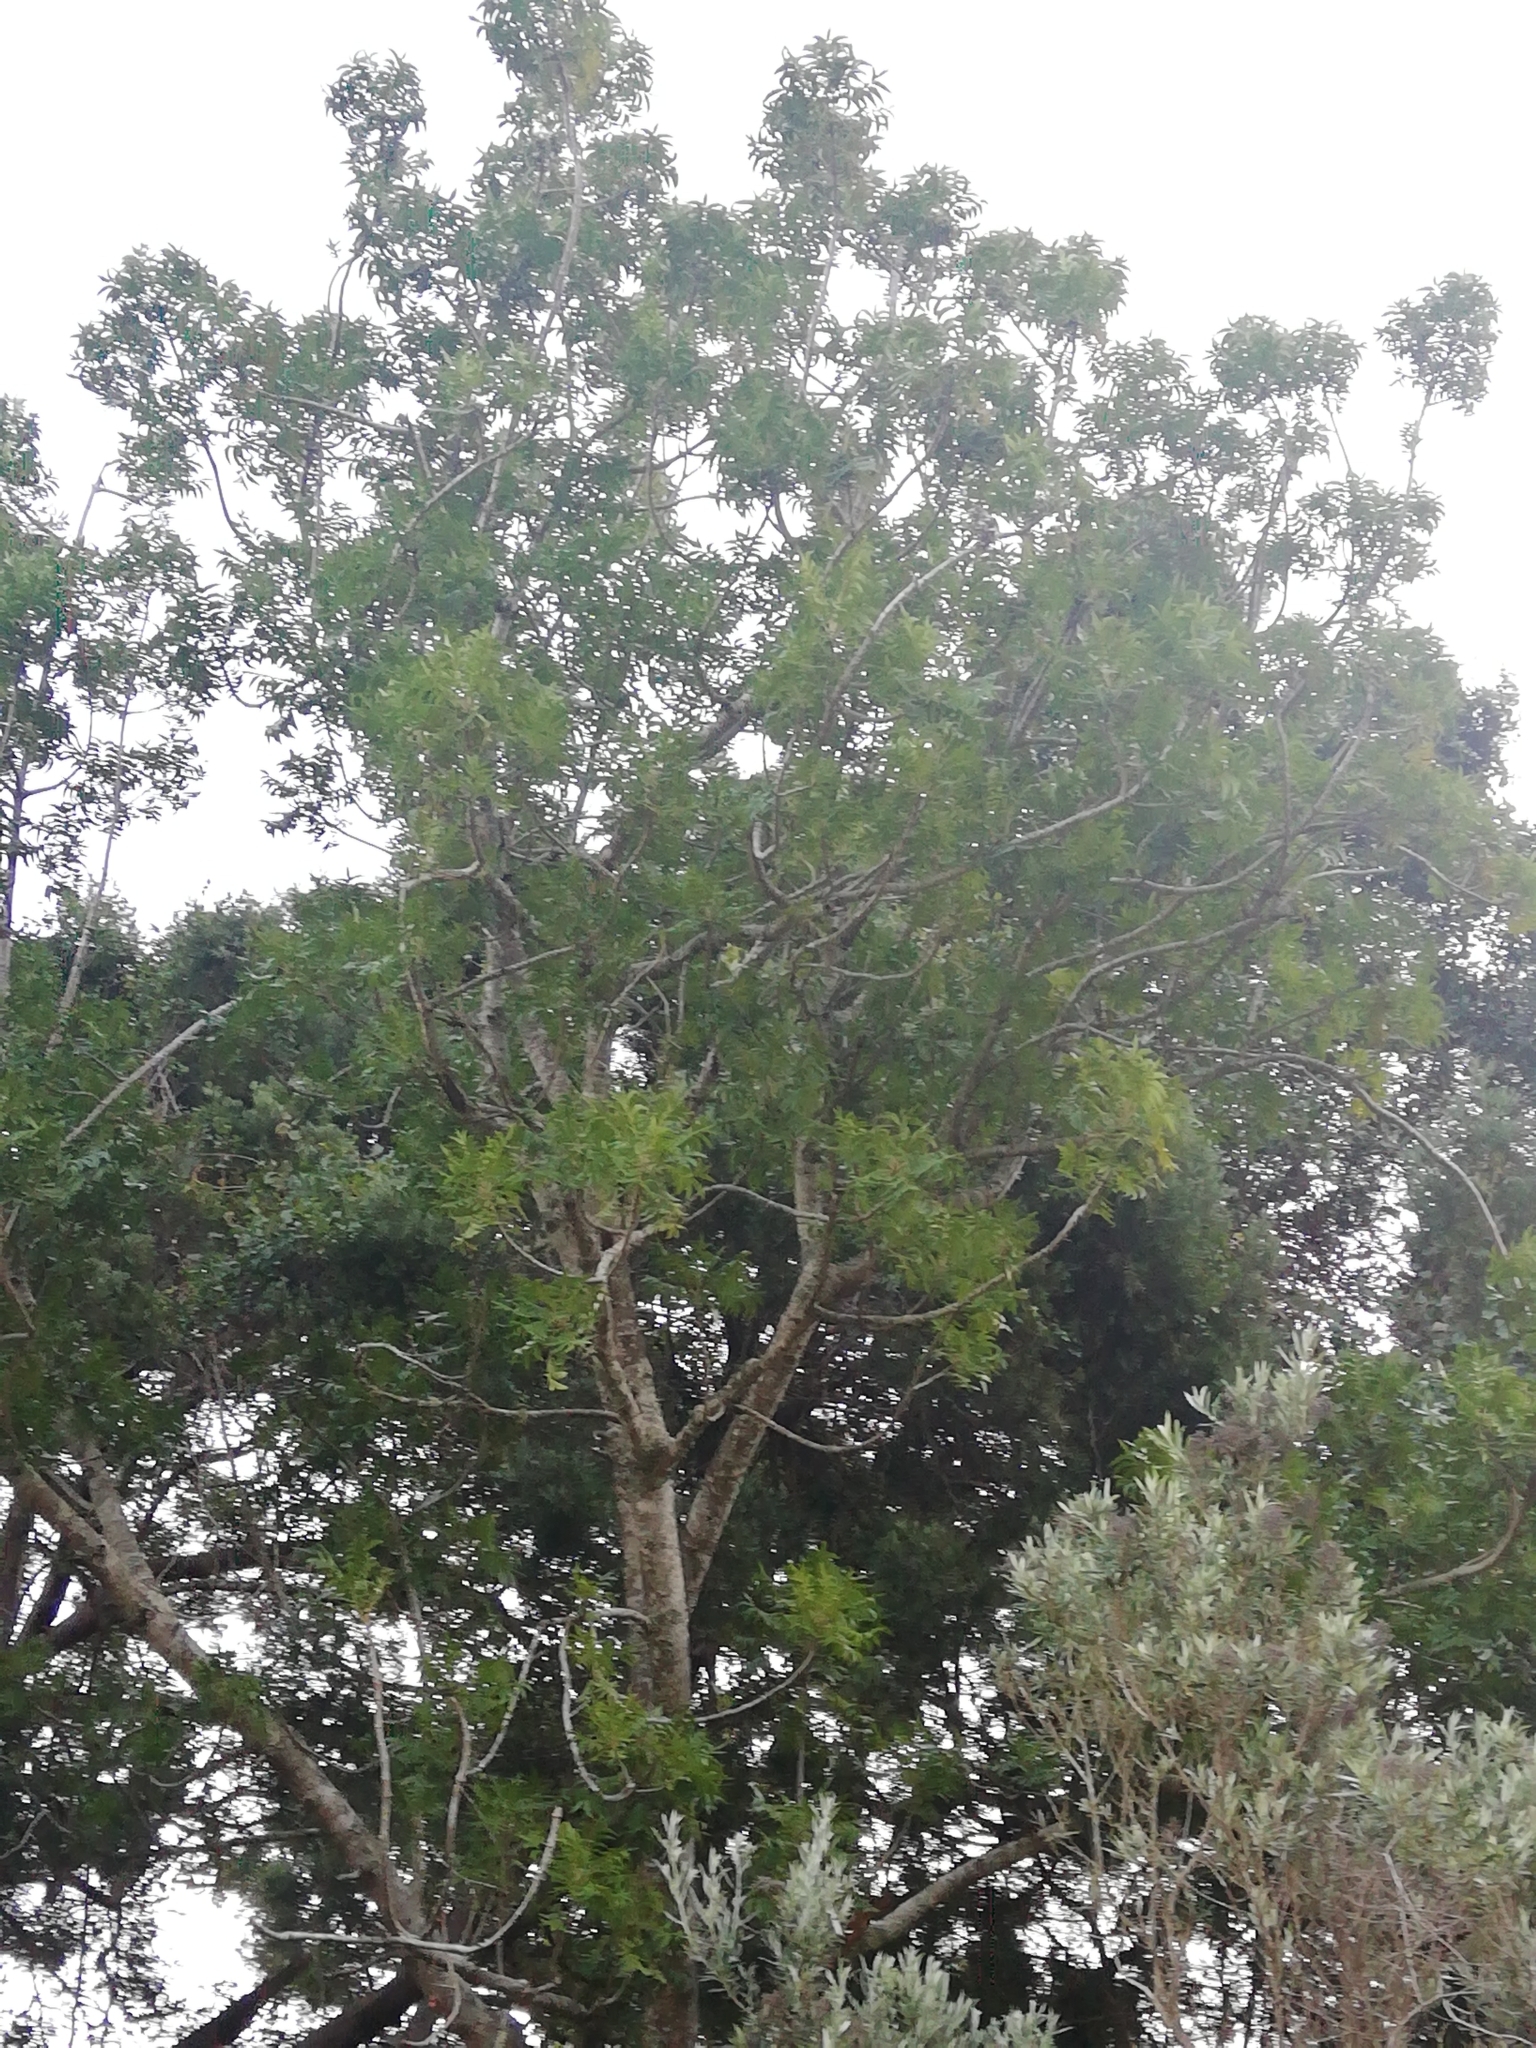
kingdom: Plantae
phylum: Tracheophyta
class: Magnoliopsida
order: Sapindales
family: Anacardiaceae
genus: Harpephyllum
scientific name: Harpephyllum caffrum
